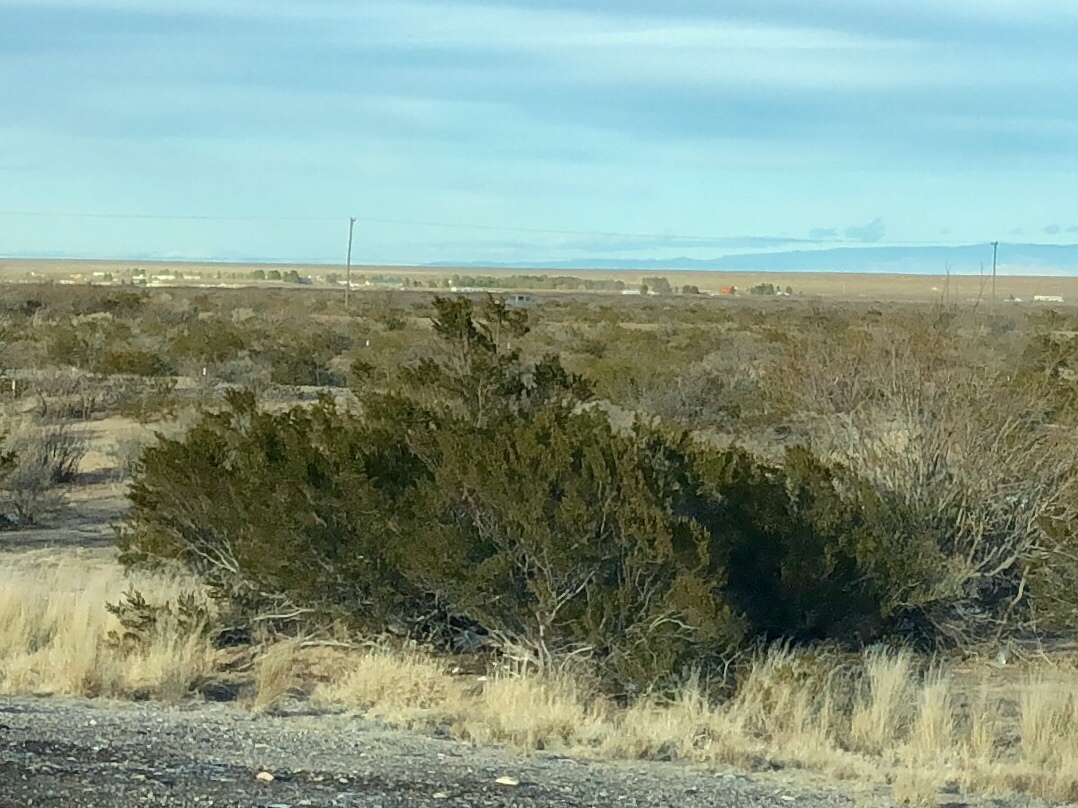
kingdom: Plantae
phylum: Tracheophyta
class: Magnoliopsida
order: Zygophyllales
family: Zygophyllaceae
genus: Larrea
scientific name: Larrea tridentata
